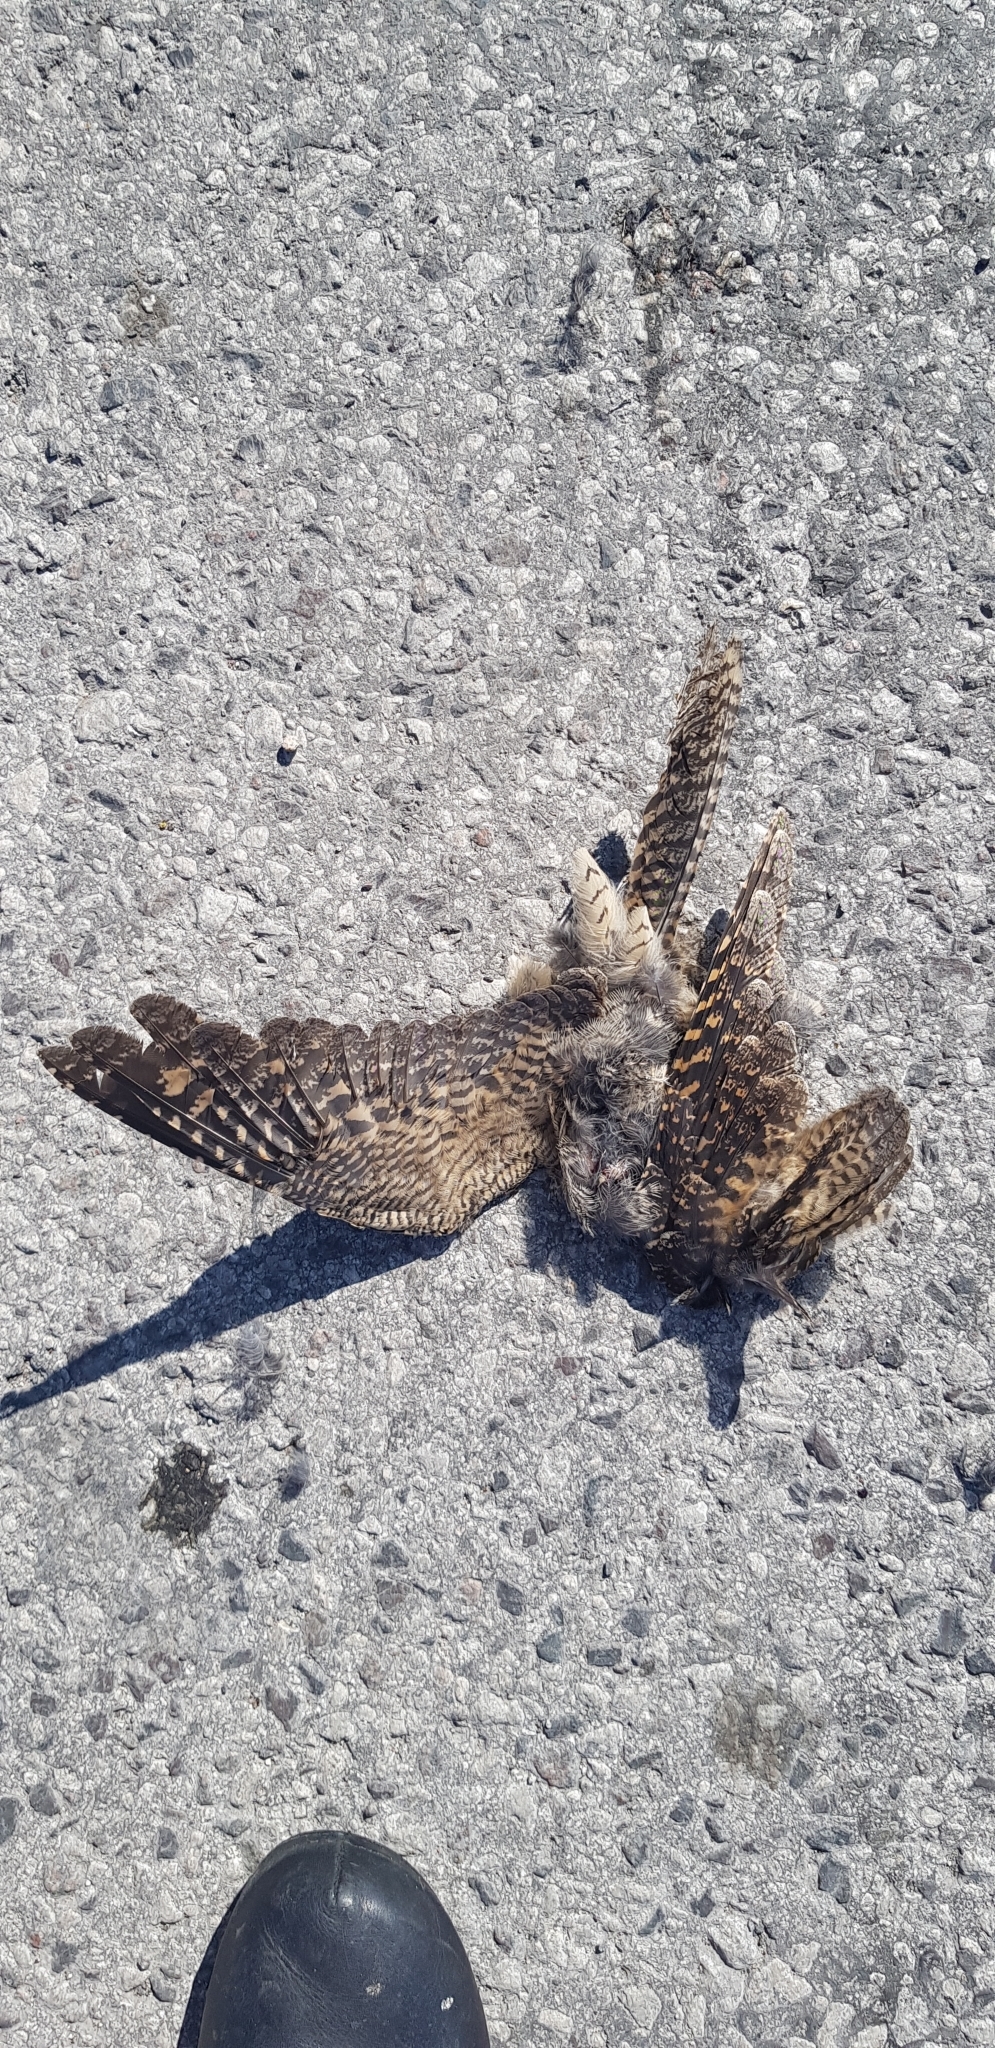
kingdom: Animalia
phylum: Chordata
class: Aves
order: Caprimulgiformes
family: Caprimulgidae
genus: Caprimulgus
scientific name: Caprimulgus europaeus
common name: European nightjar
